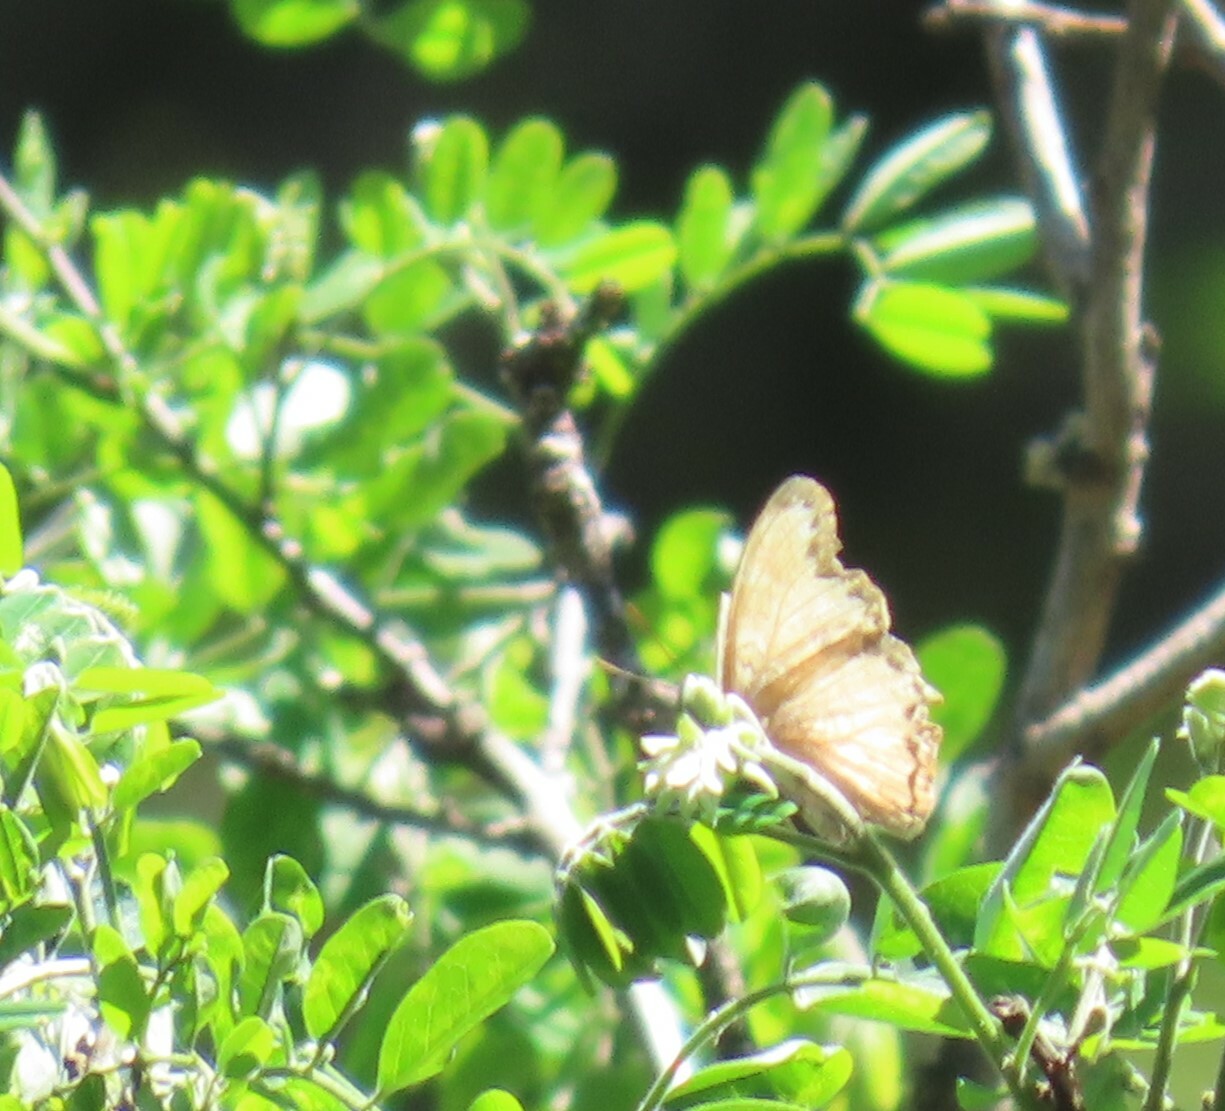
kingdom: Animalia
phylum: Arthropoda
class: Insecta
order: Lepidoptera
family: Nymphalidae
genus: Cymothoe
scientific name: Cymothoe alcimeda
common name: Battling glider
